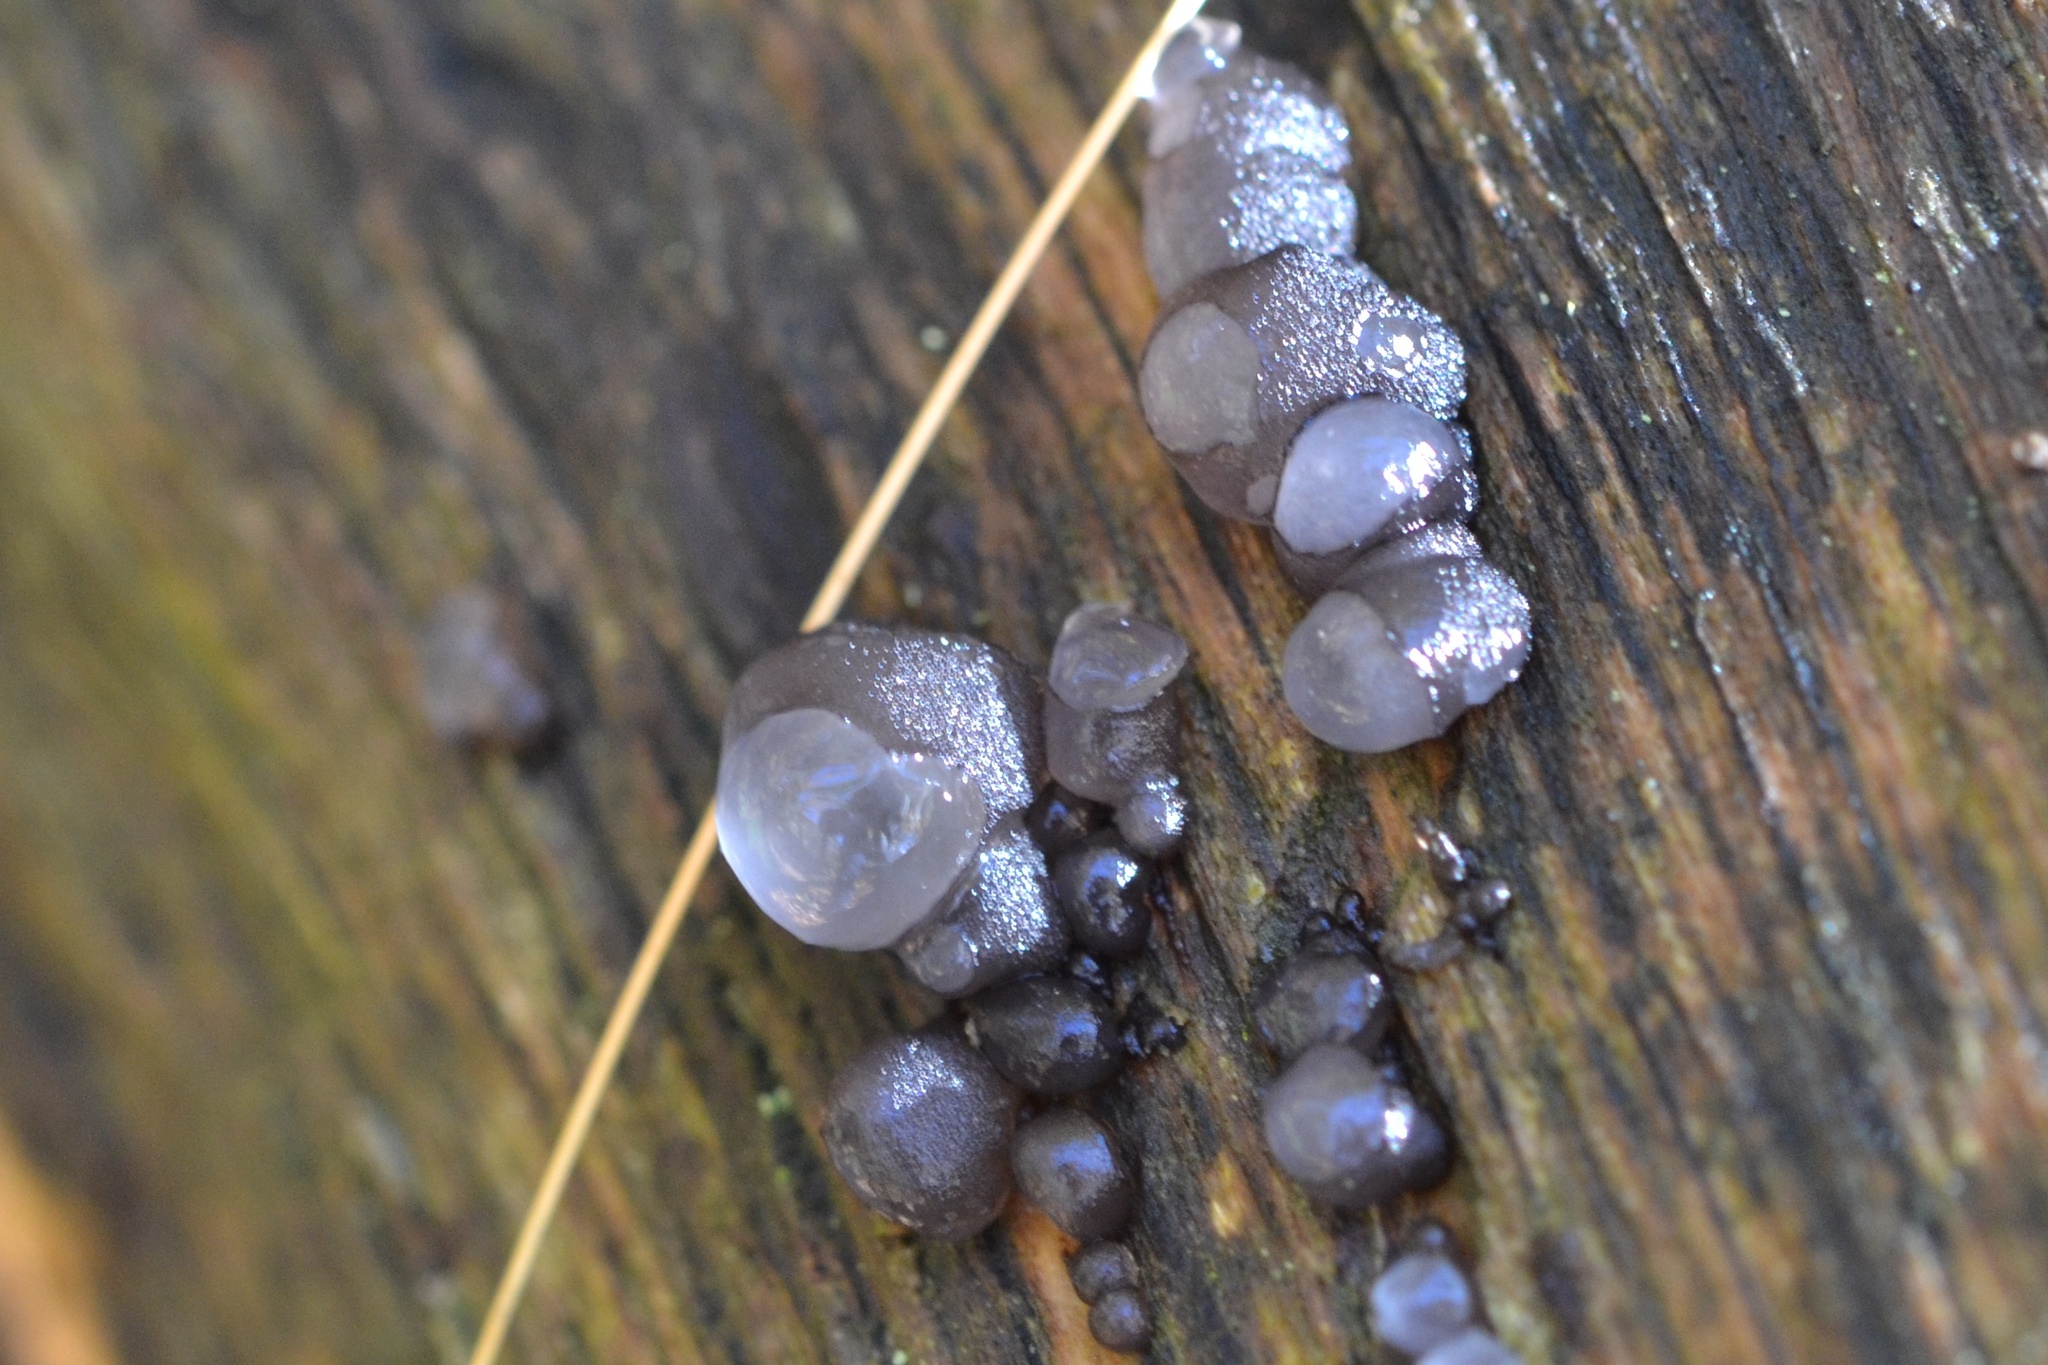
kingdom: Fungi
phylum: Ascomycota
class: Leotiomycetes
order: Helotiales
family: Gelatinodiscaceae
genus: Neobulgaria
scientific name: Neobulgaria pura
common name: Beech jelly-disc
